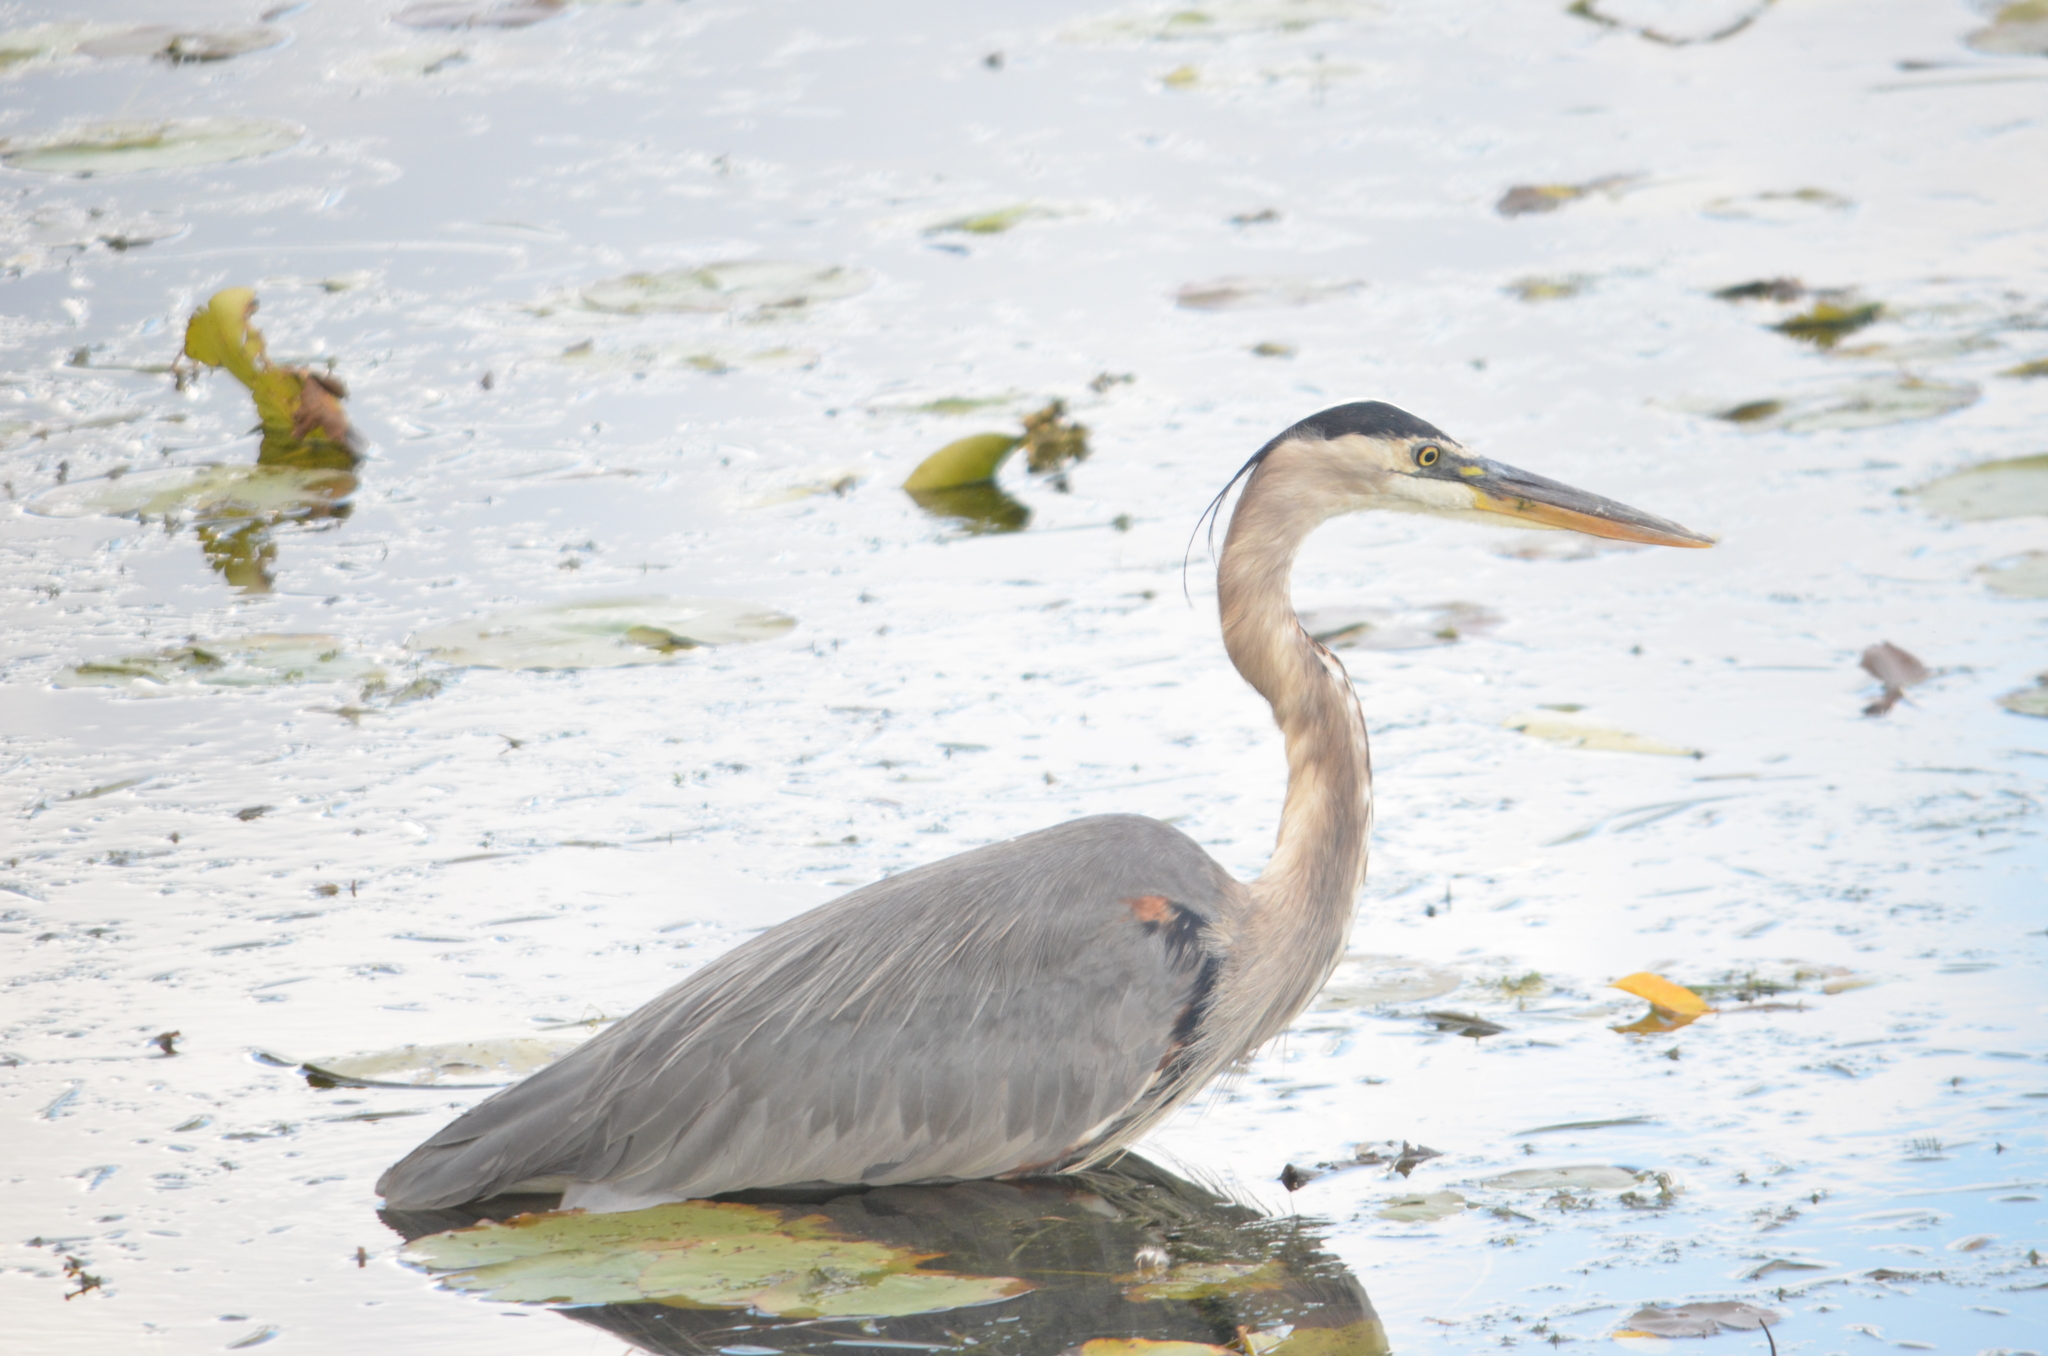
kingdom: Animalia
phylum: Chordata
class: Aves
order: Pelecaniformes
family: Ardeidae
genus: Ardea
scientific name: Ardea herodias
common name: Great blue heron
